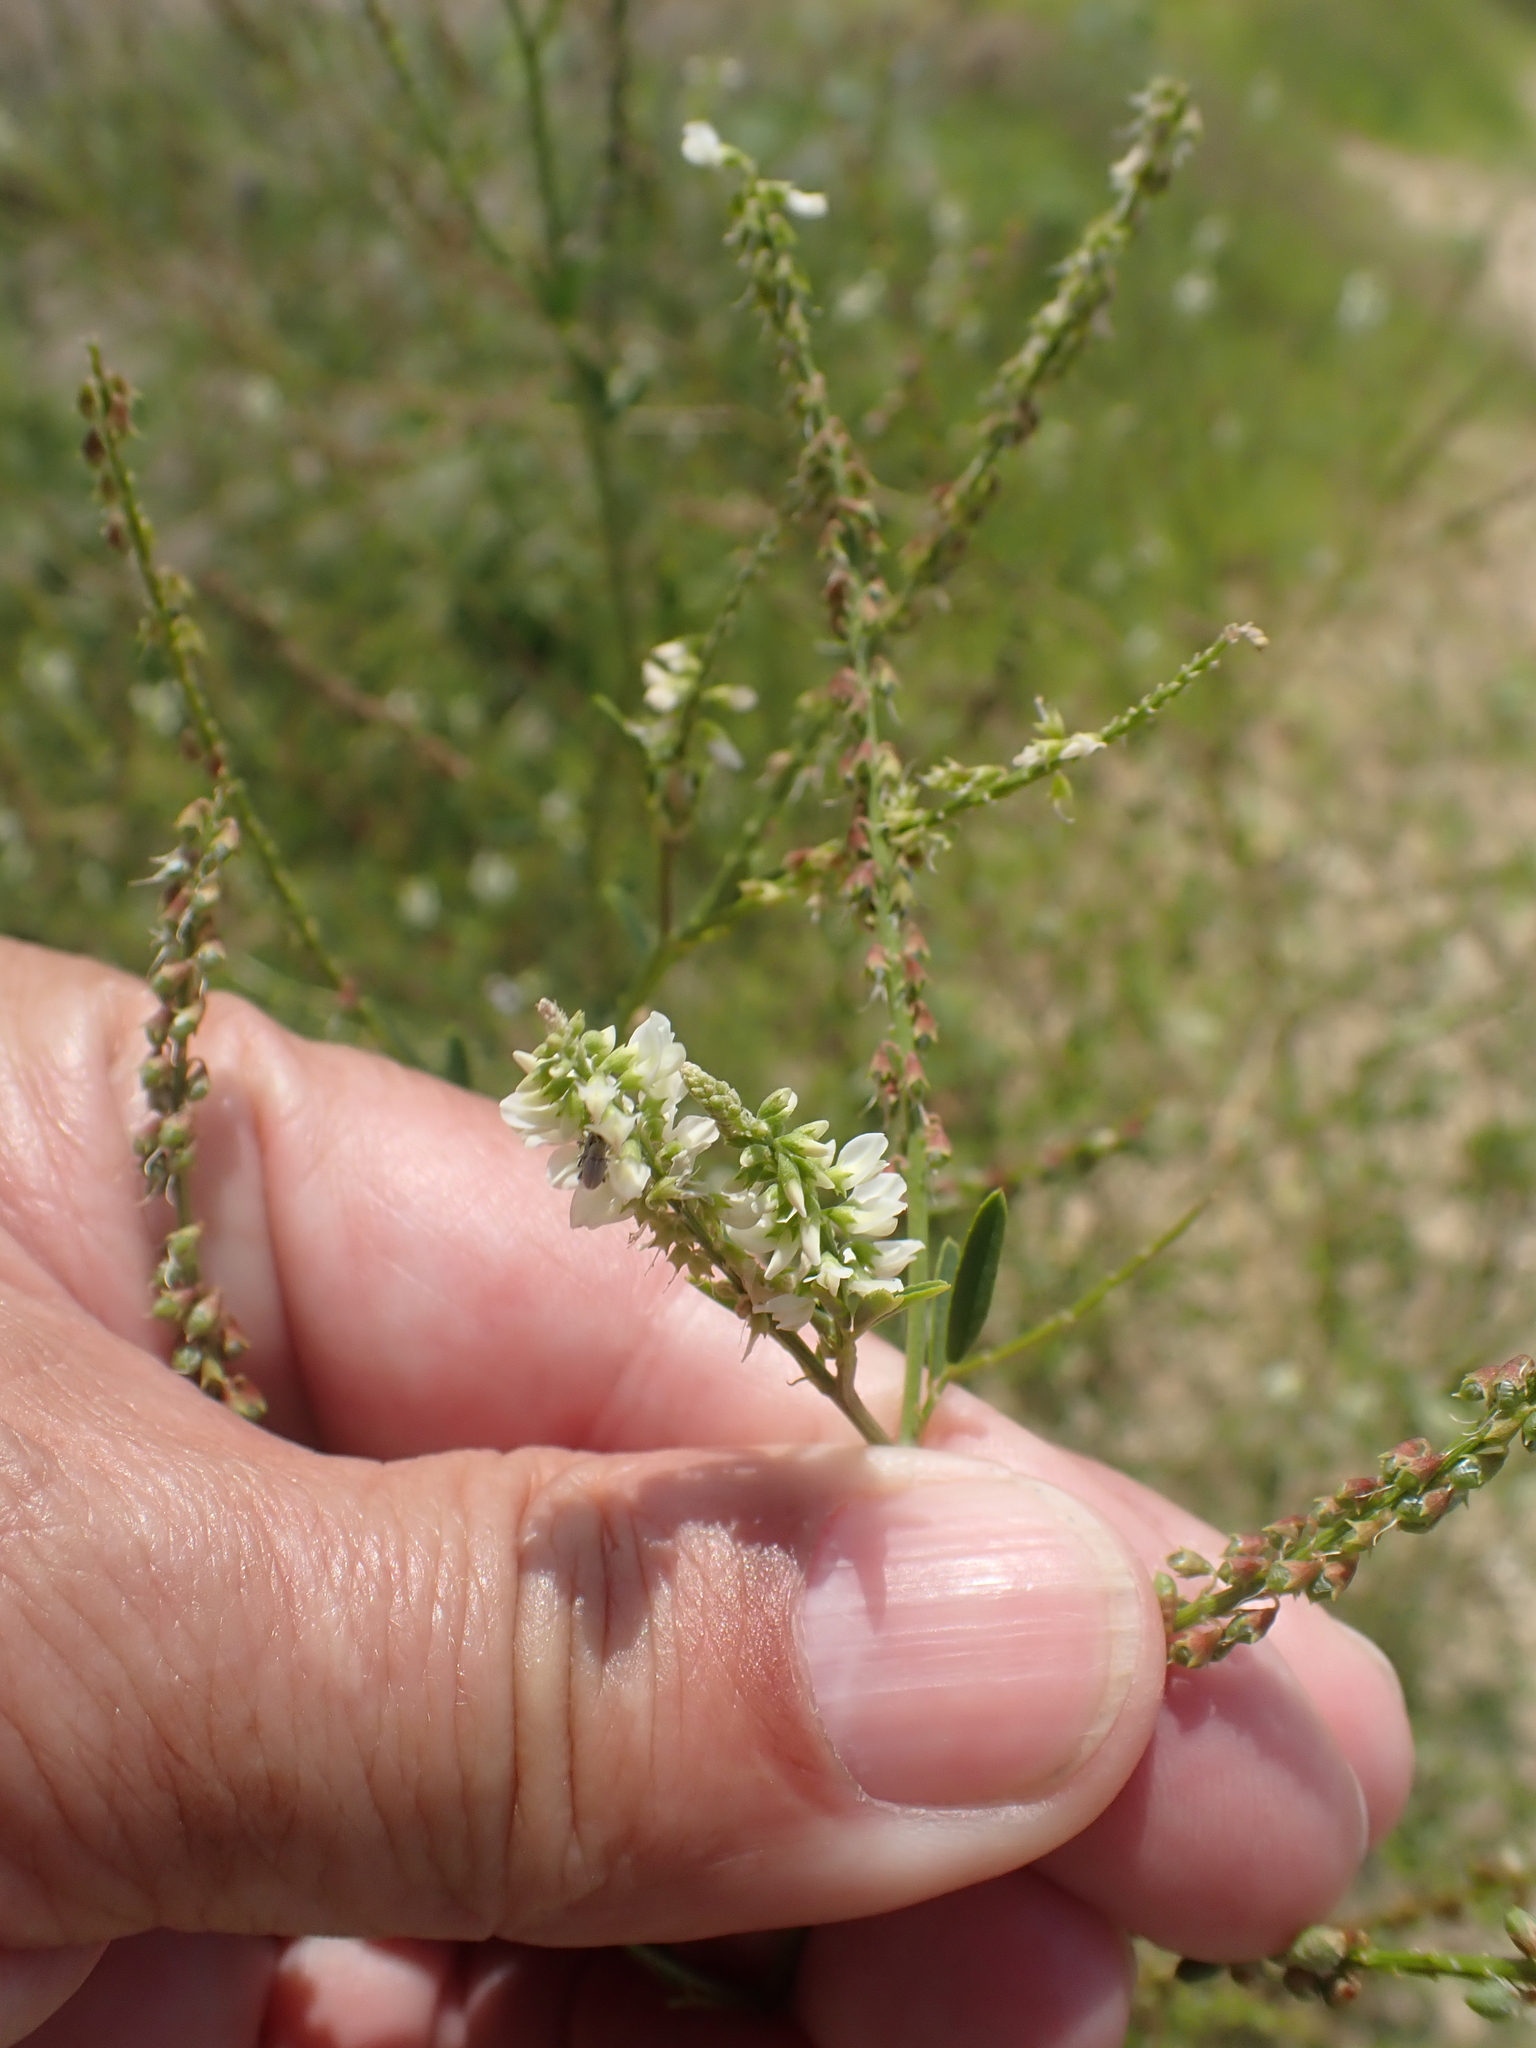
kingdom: Plantae
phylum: Tracheophyta
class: Magnoliopsida
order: Fabales
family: Fabaceae
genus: Melilotus
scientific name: Melilotus albus
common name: White melilot
